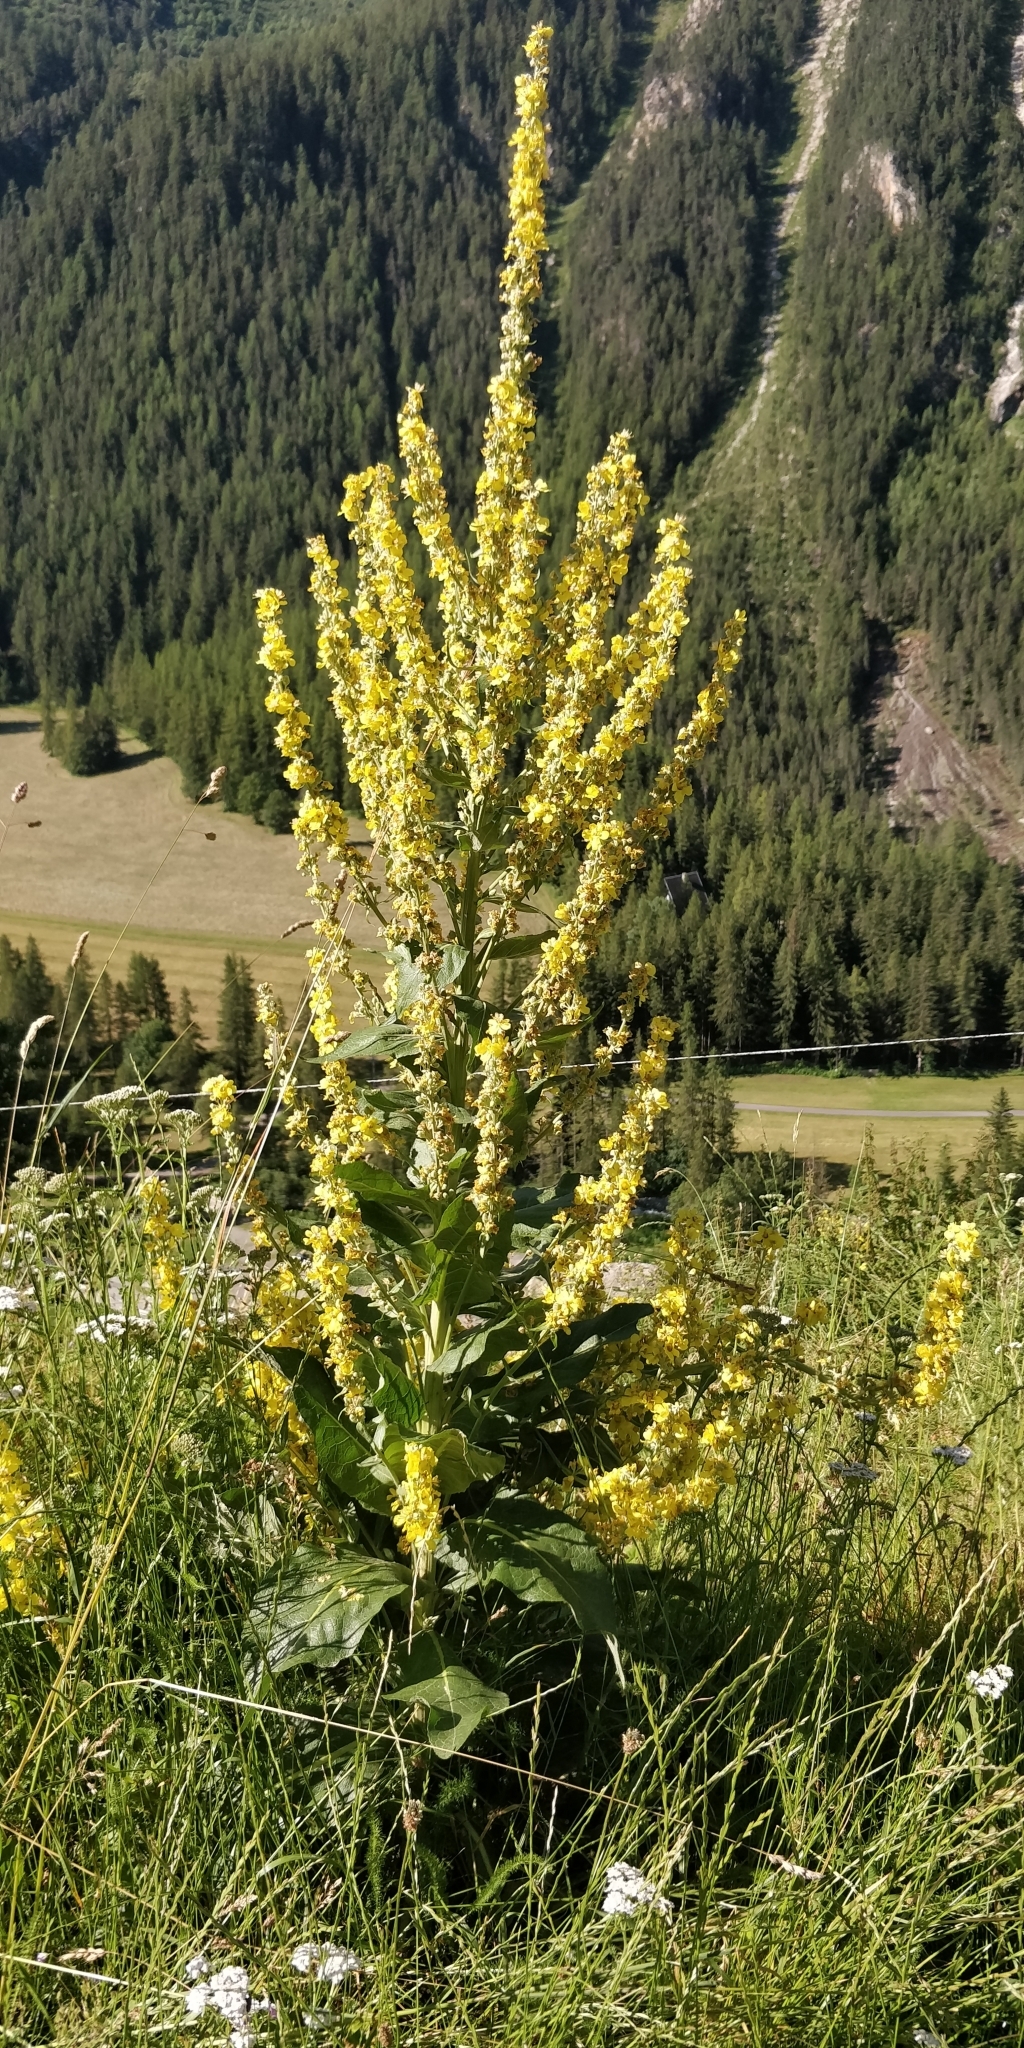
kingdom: Plantae
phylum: Tracheophyta
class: Magnoliopsida
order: Lamiales
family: Scrophulariaceae
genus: Verbascum
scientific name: Verbascum lychnitis
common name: White mullein
